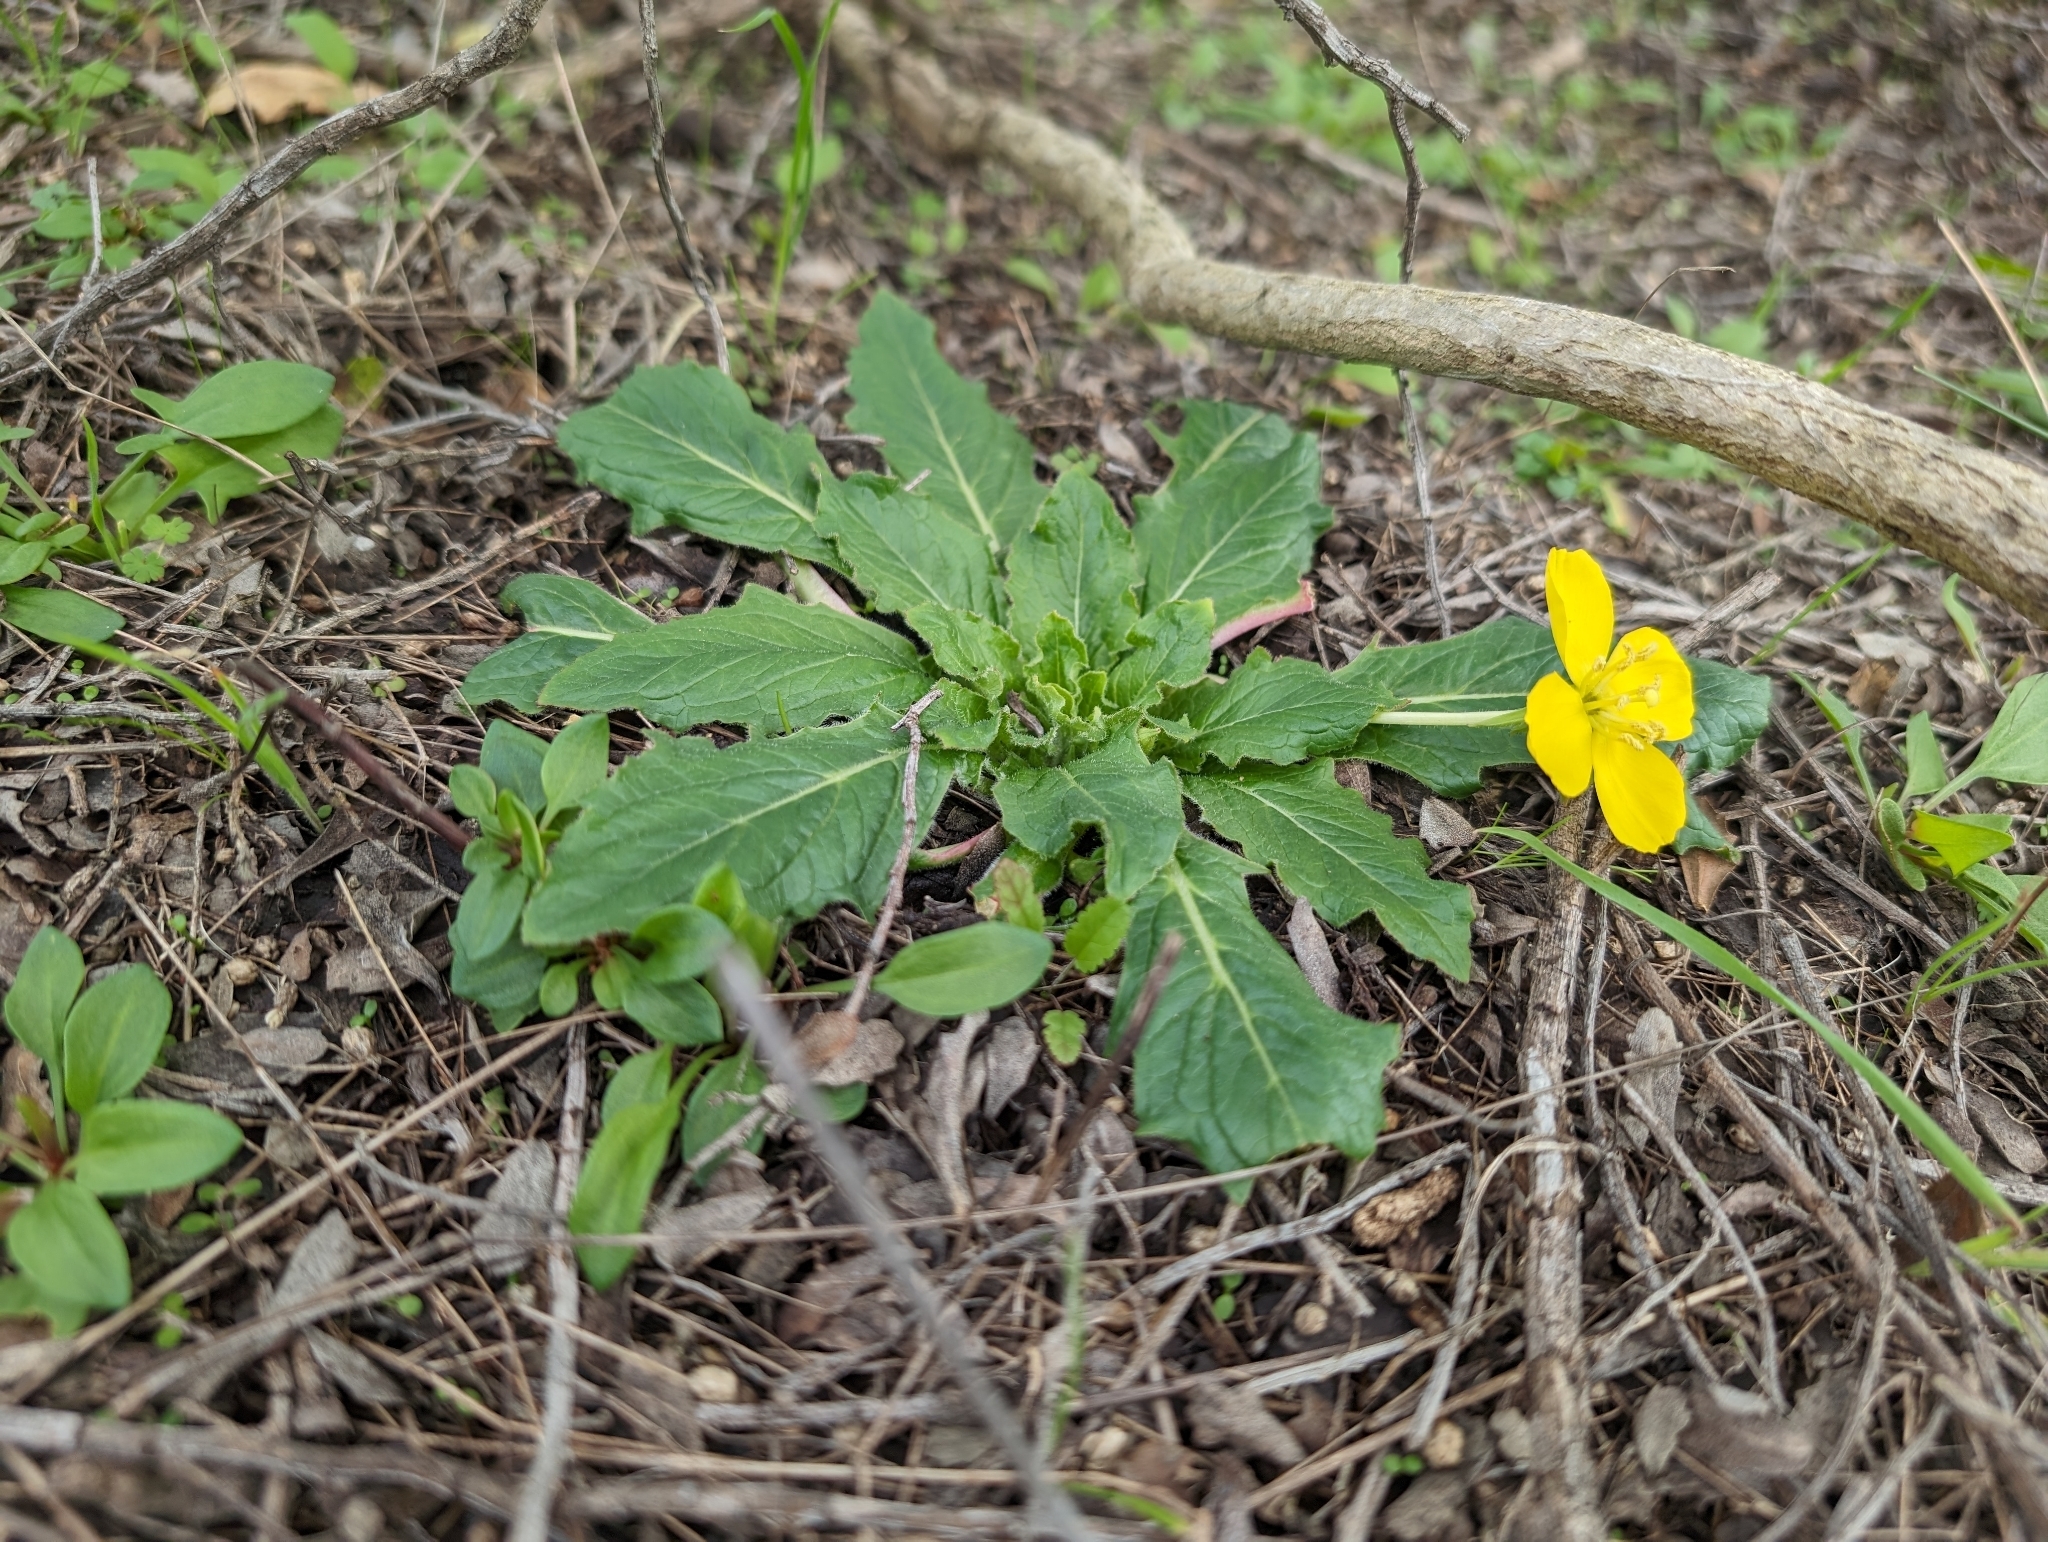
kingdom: Plantae
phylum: Tracheophyta
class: Magnoliopsida
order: Myrtales
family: Onagraceae
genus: Taraxia
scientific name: Taraxia ovata
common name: Goldeneggs
